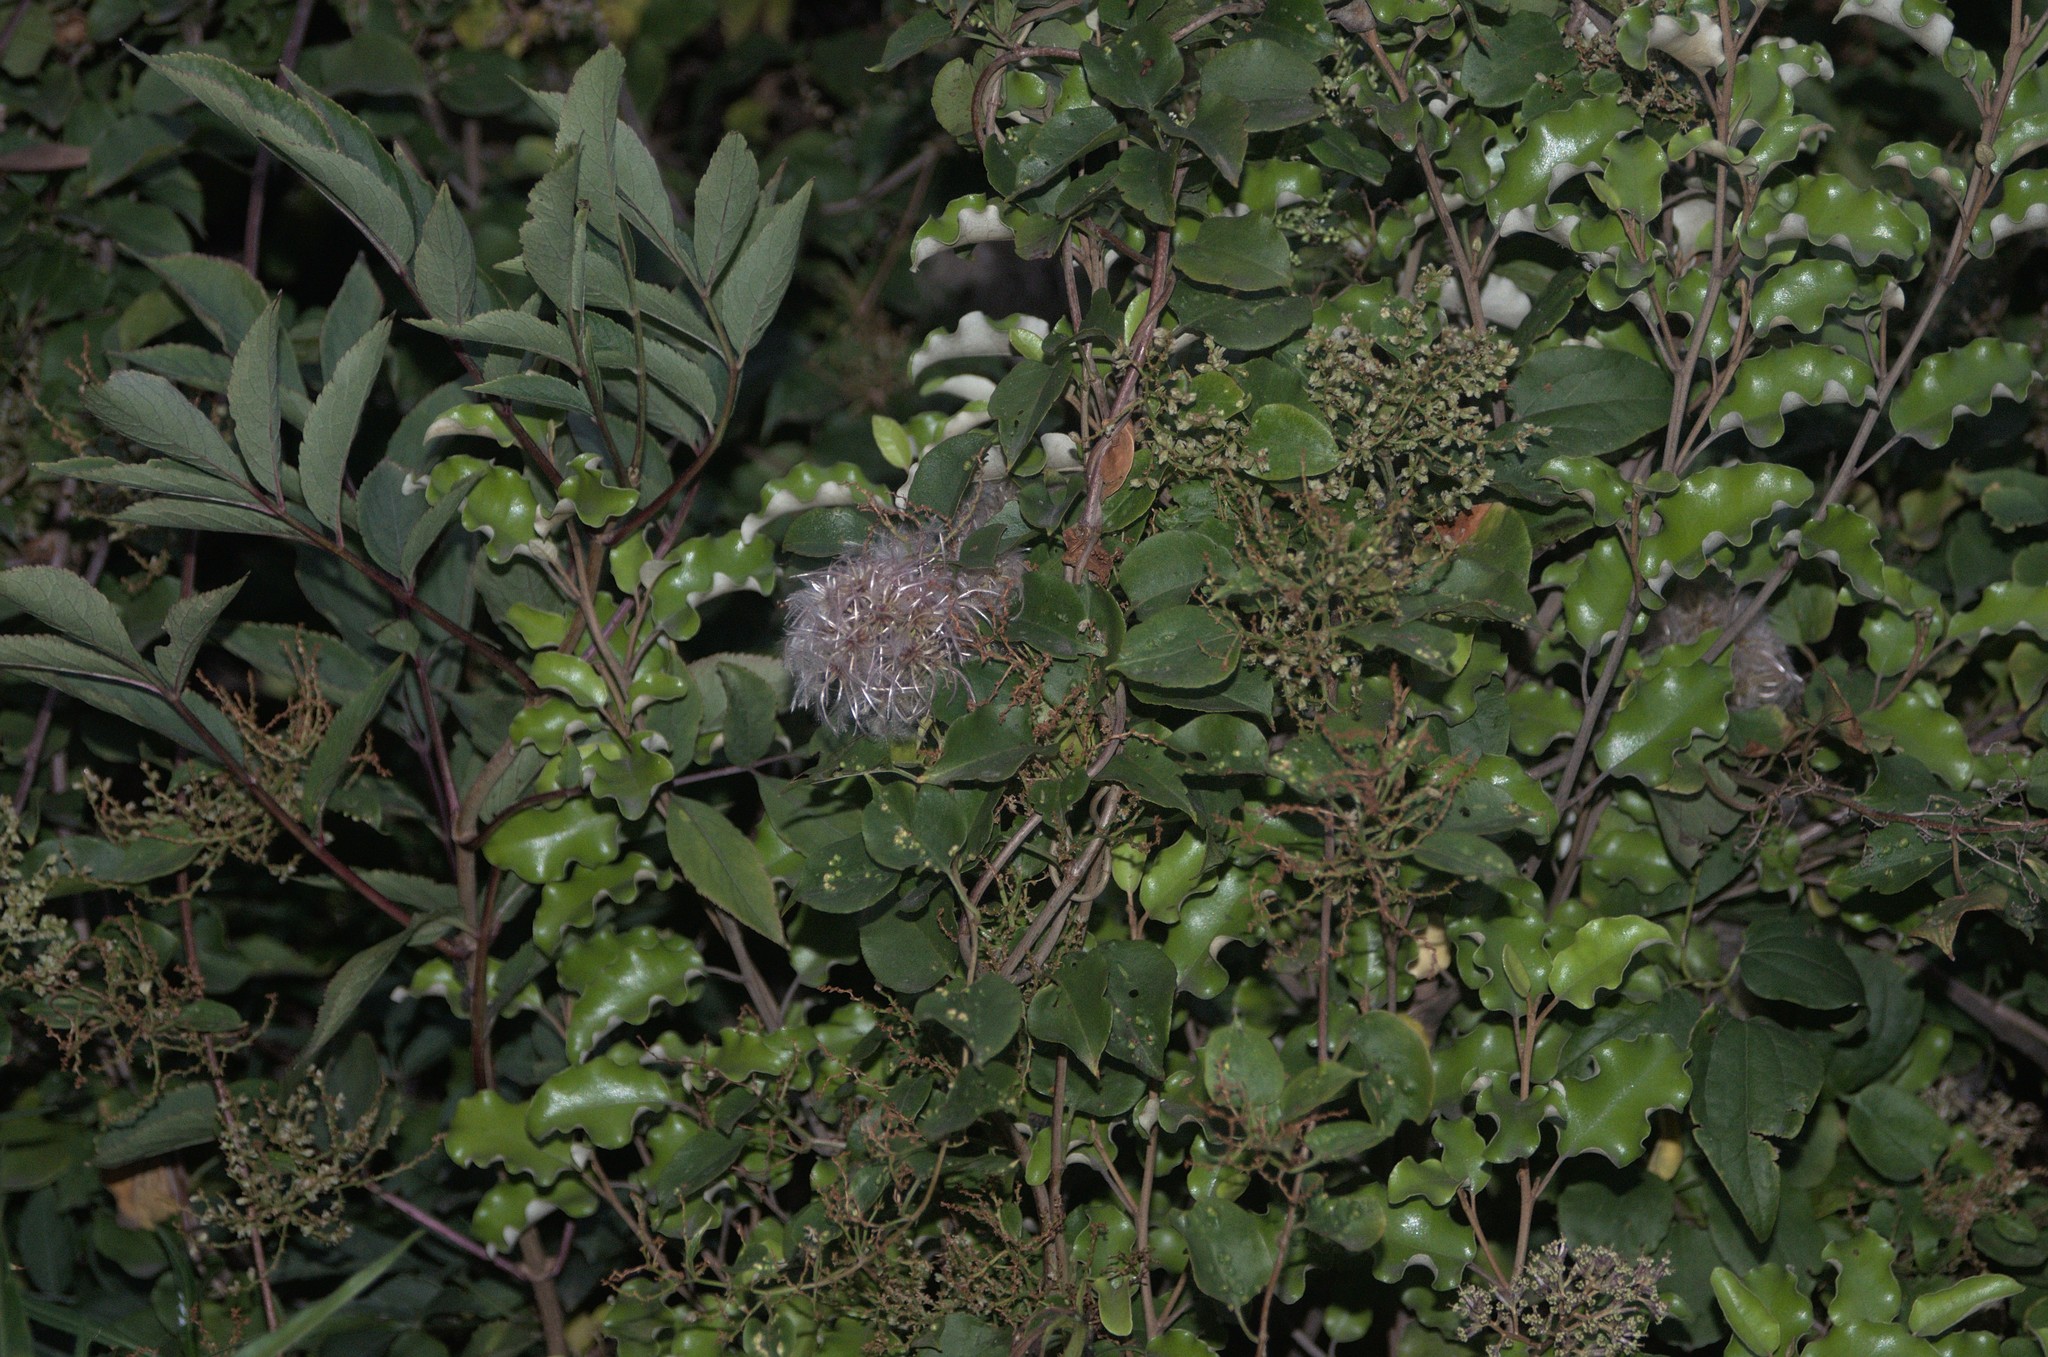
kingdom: Plantae
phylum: Tracheophyta
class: Magnoliopsida
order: Ranunculales
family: Ranunculaceae
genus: Clematis
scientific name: Clematis vitalba
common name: Evergreen clematis
